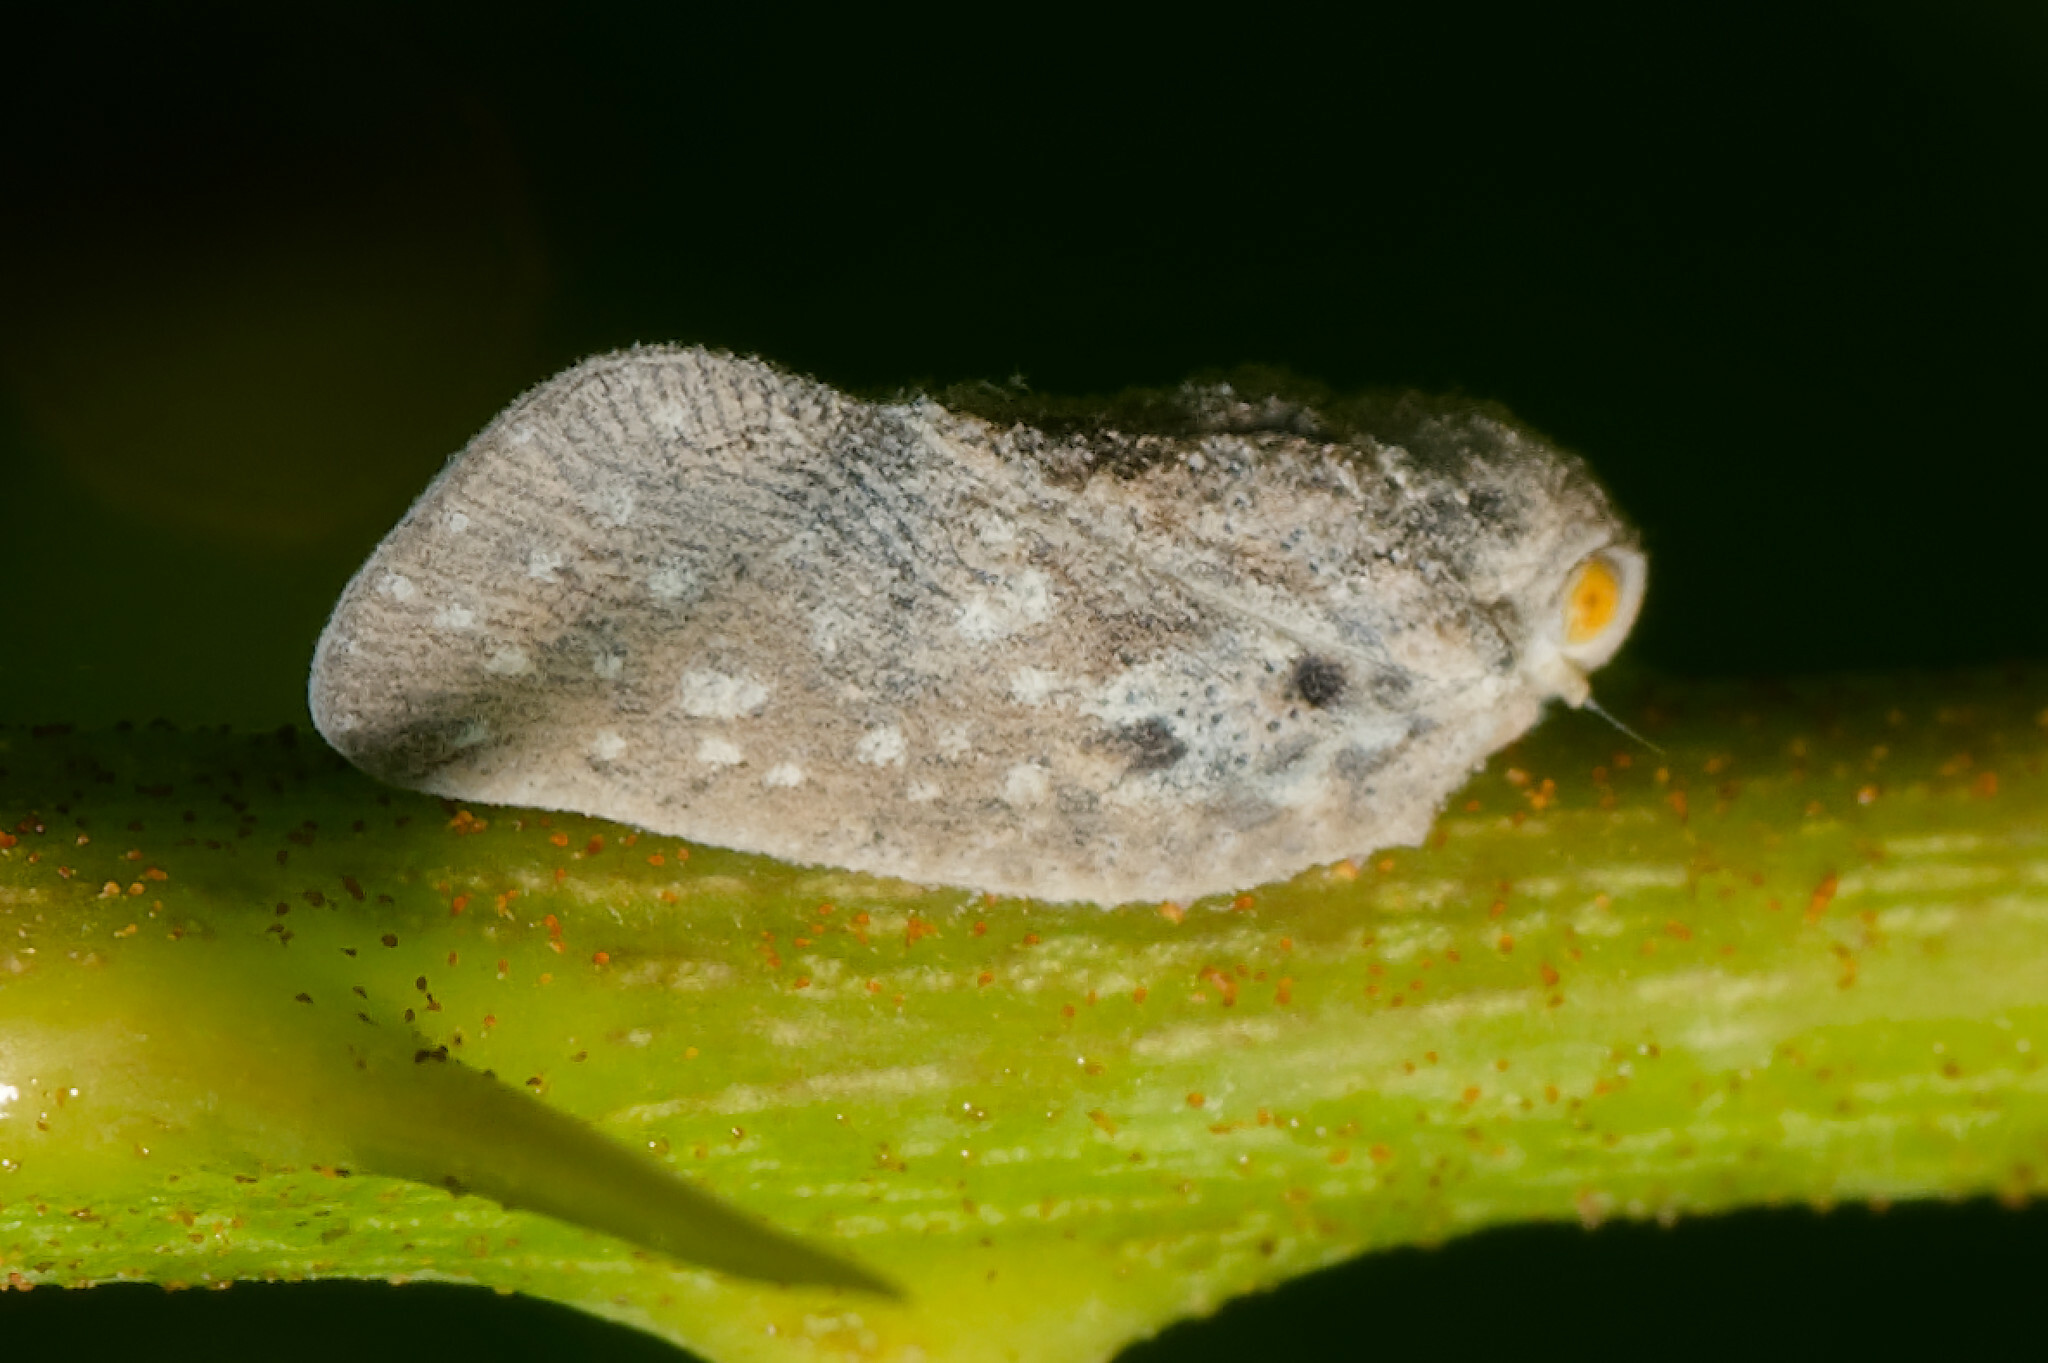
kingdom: Animalia
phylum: Arthropoda
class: Insecta
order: Hemiptera
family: Flatidae
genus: Metcalfa
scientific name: Metcalfa pruinosa
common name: Citrus flatid planthopper
